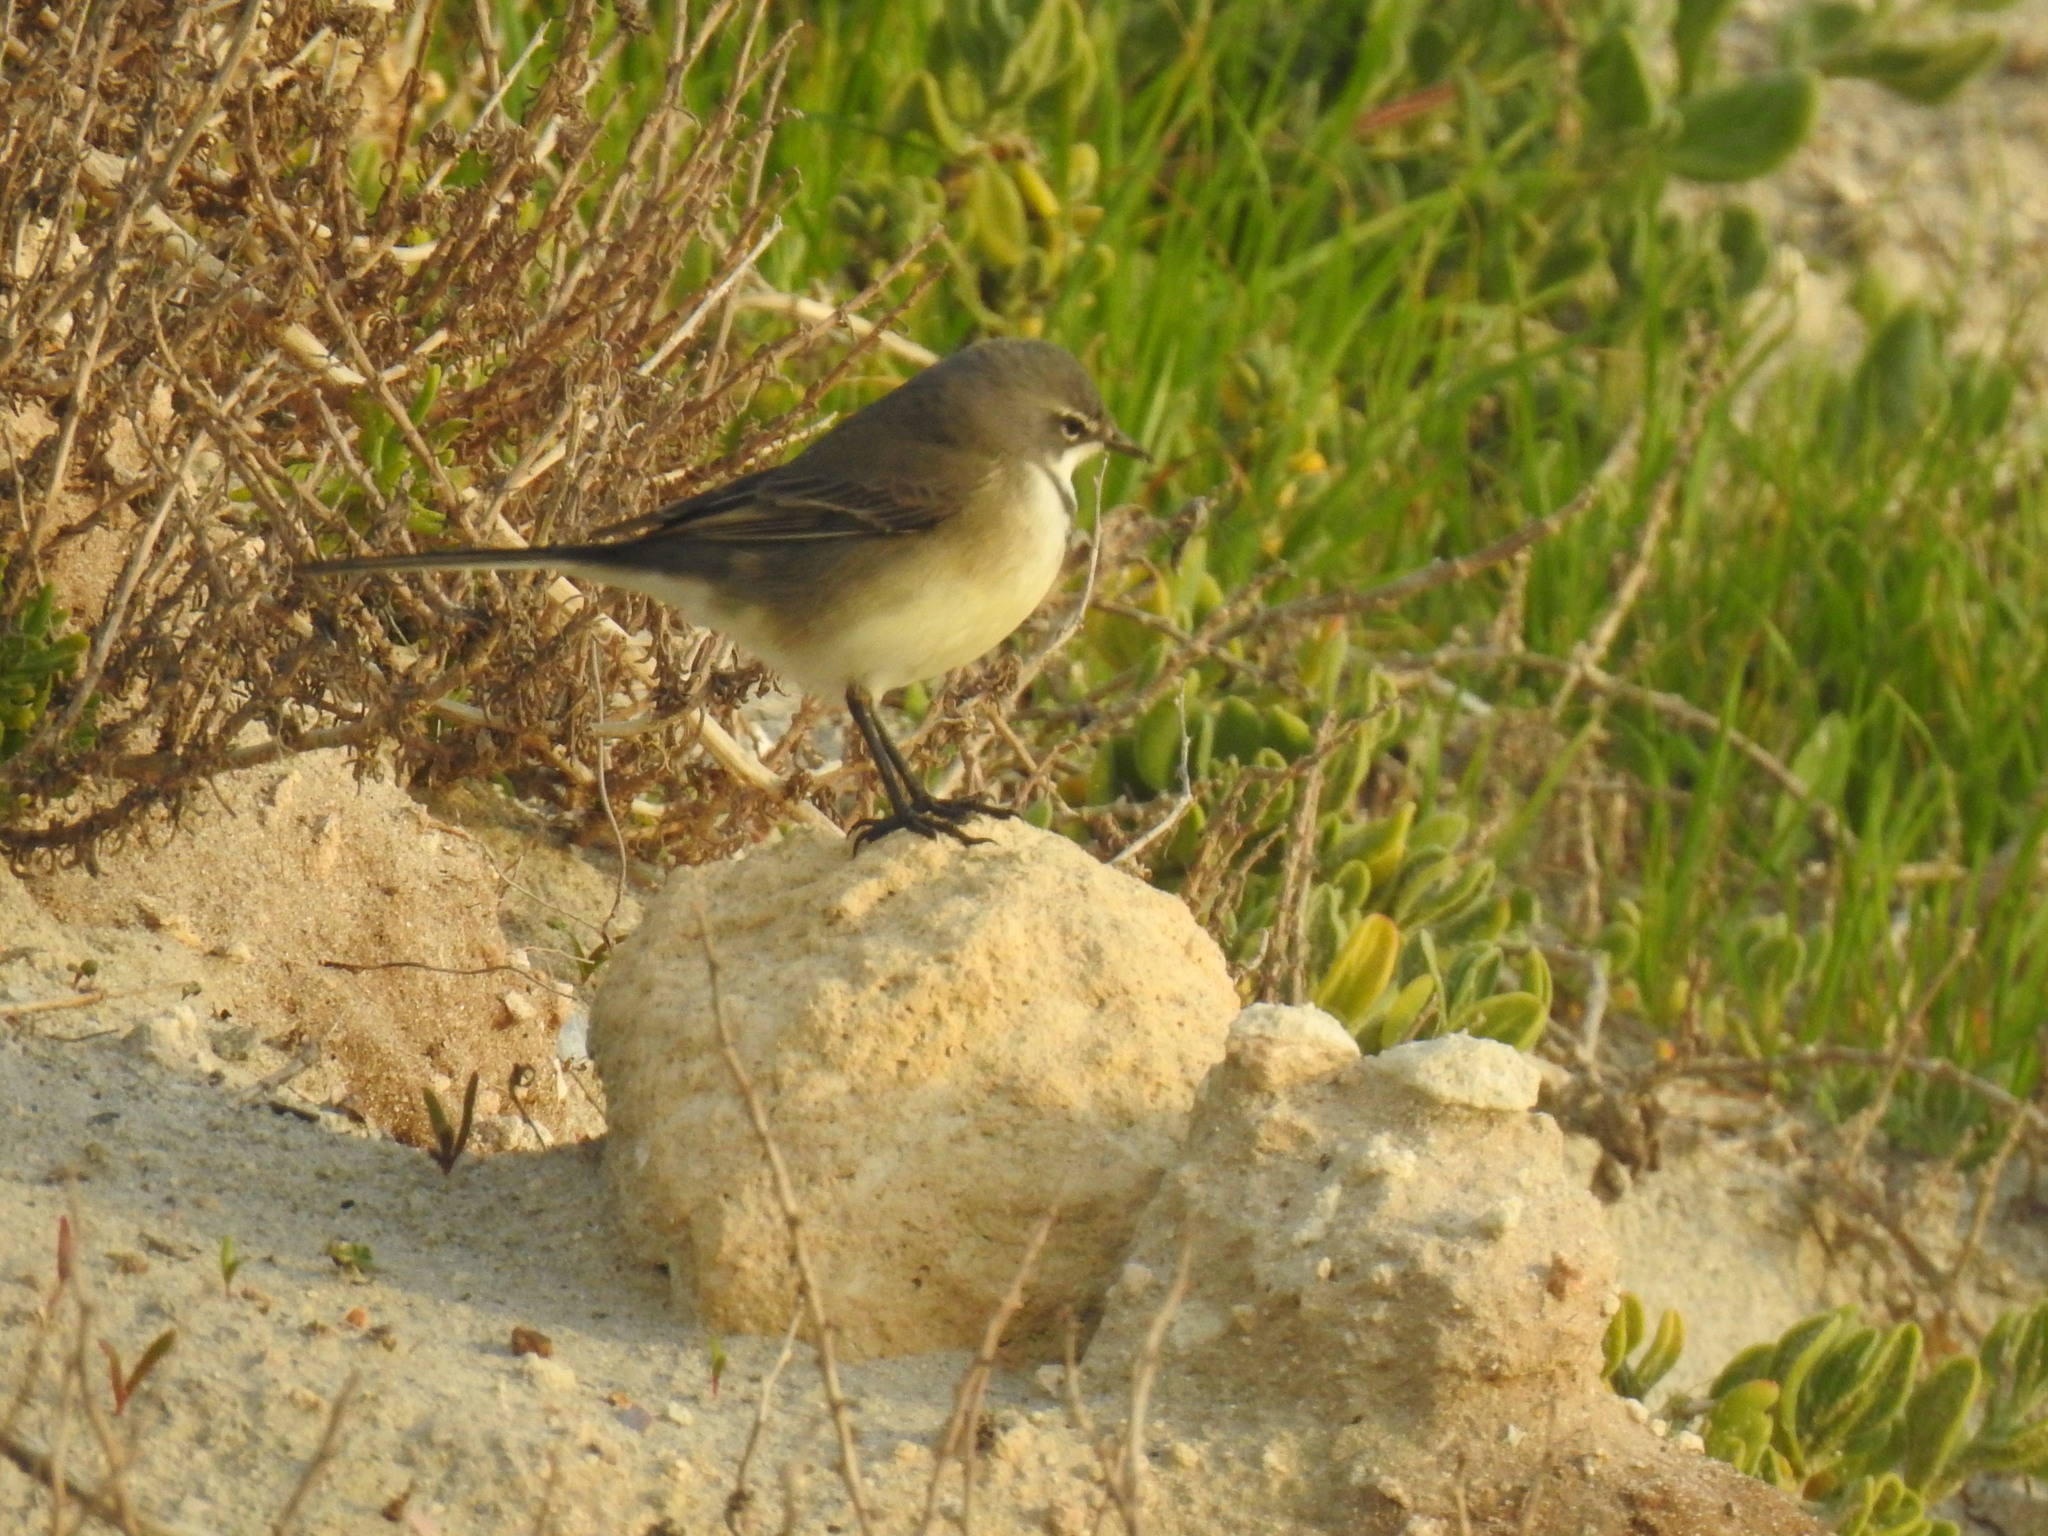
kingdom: Animalia
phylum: Chordata
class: Aves
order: Passeriformes
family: Motacillidae
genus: Motacilla
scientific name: Motacilla capensis
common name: Cape wagtail
